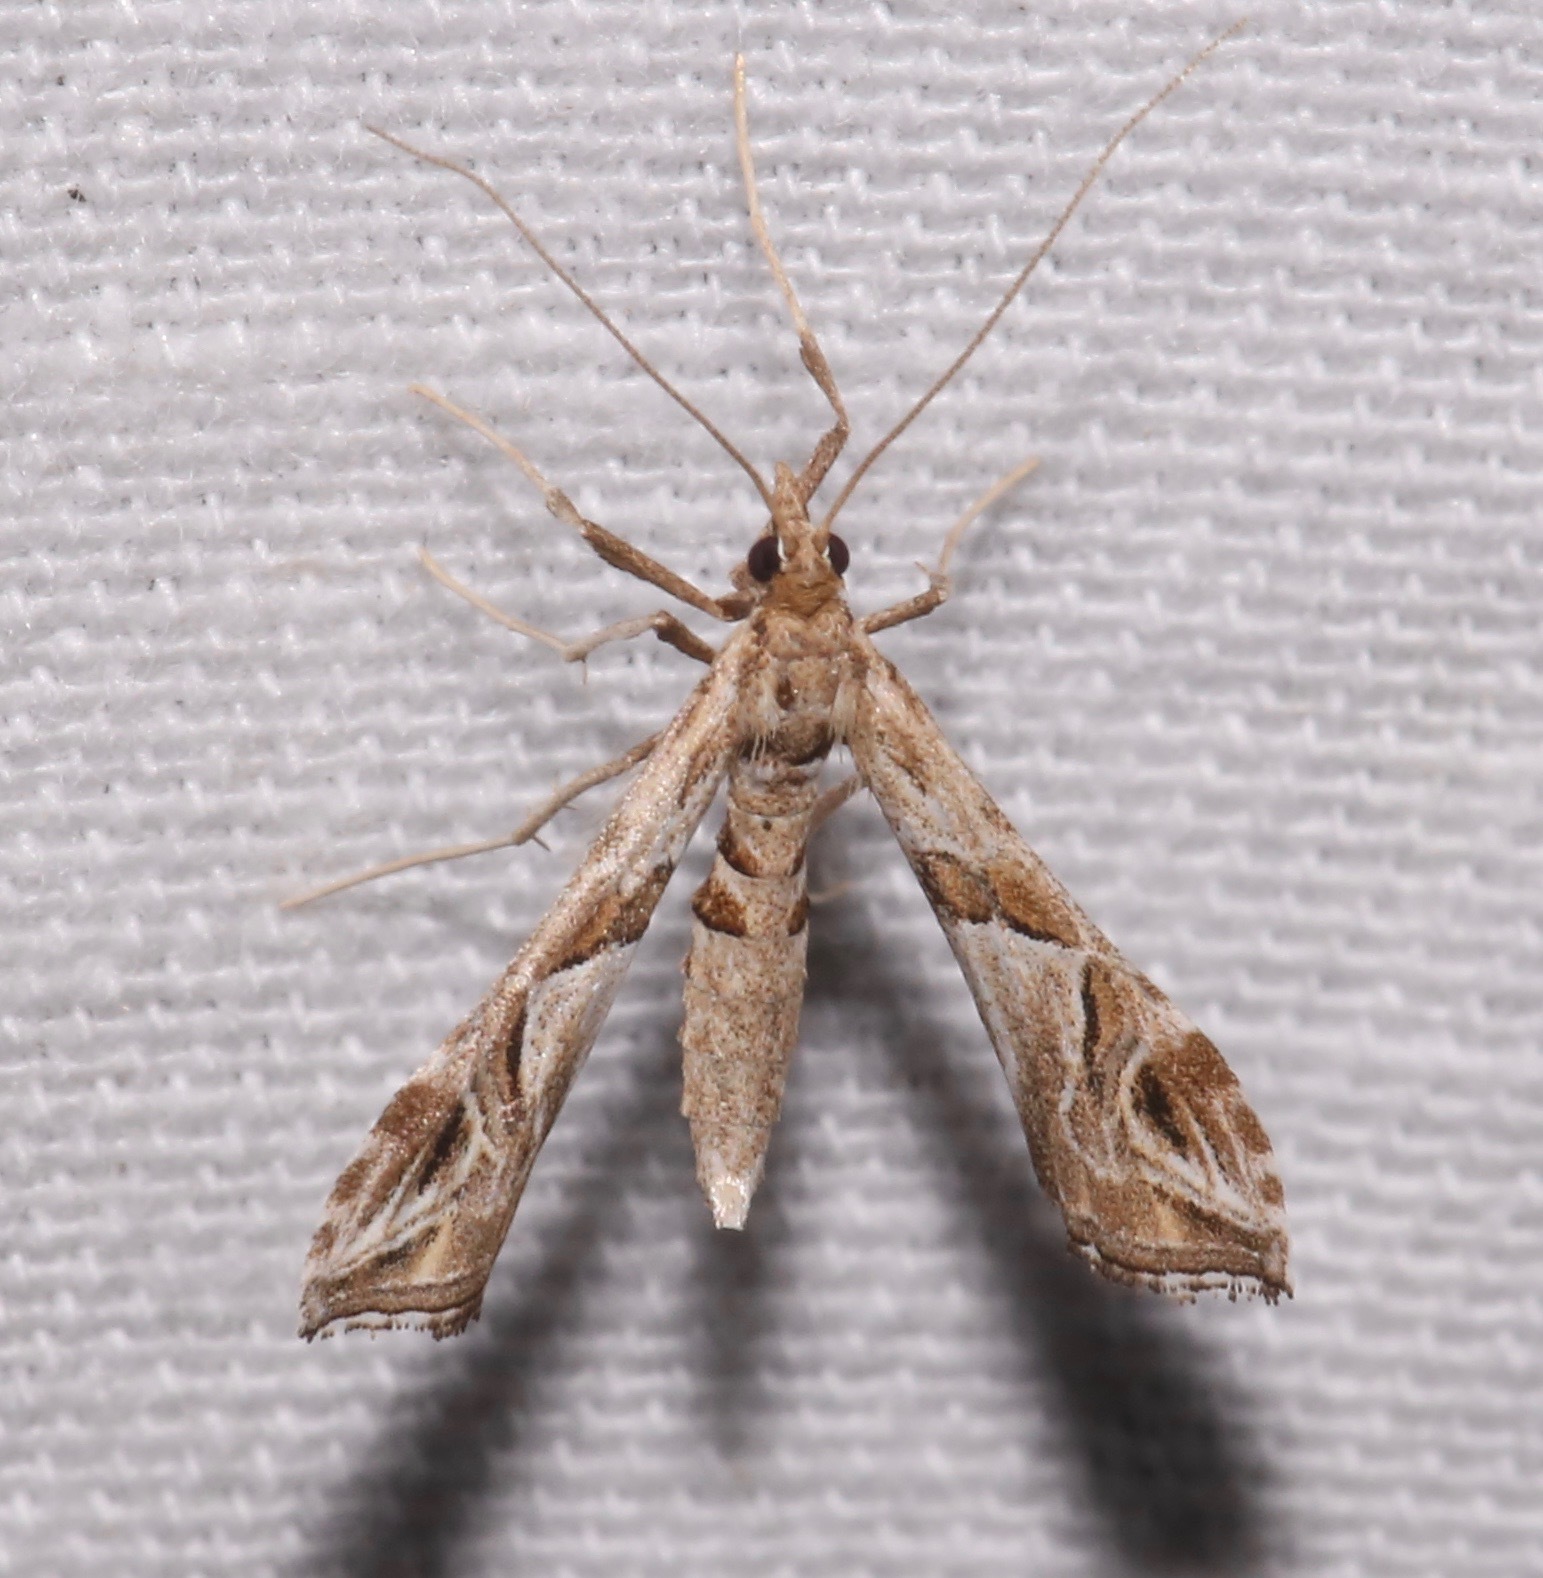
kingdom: Animalia
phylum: Arthropoda
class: Insecta
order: Lepidoptera
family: Crambidae
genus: Lineodes
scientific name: Lineodes interrupta
